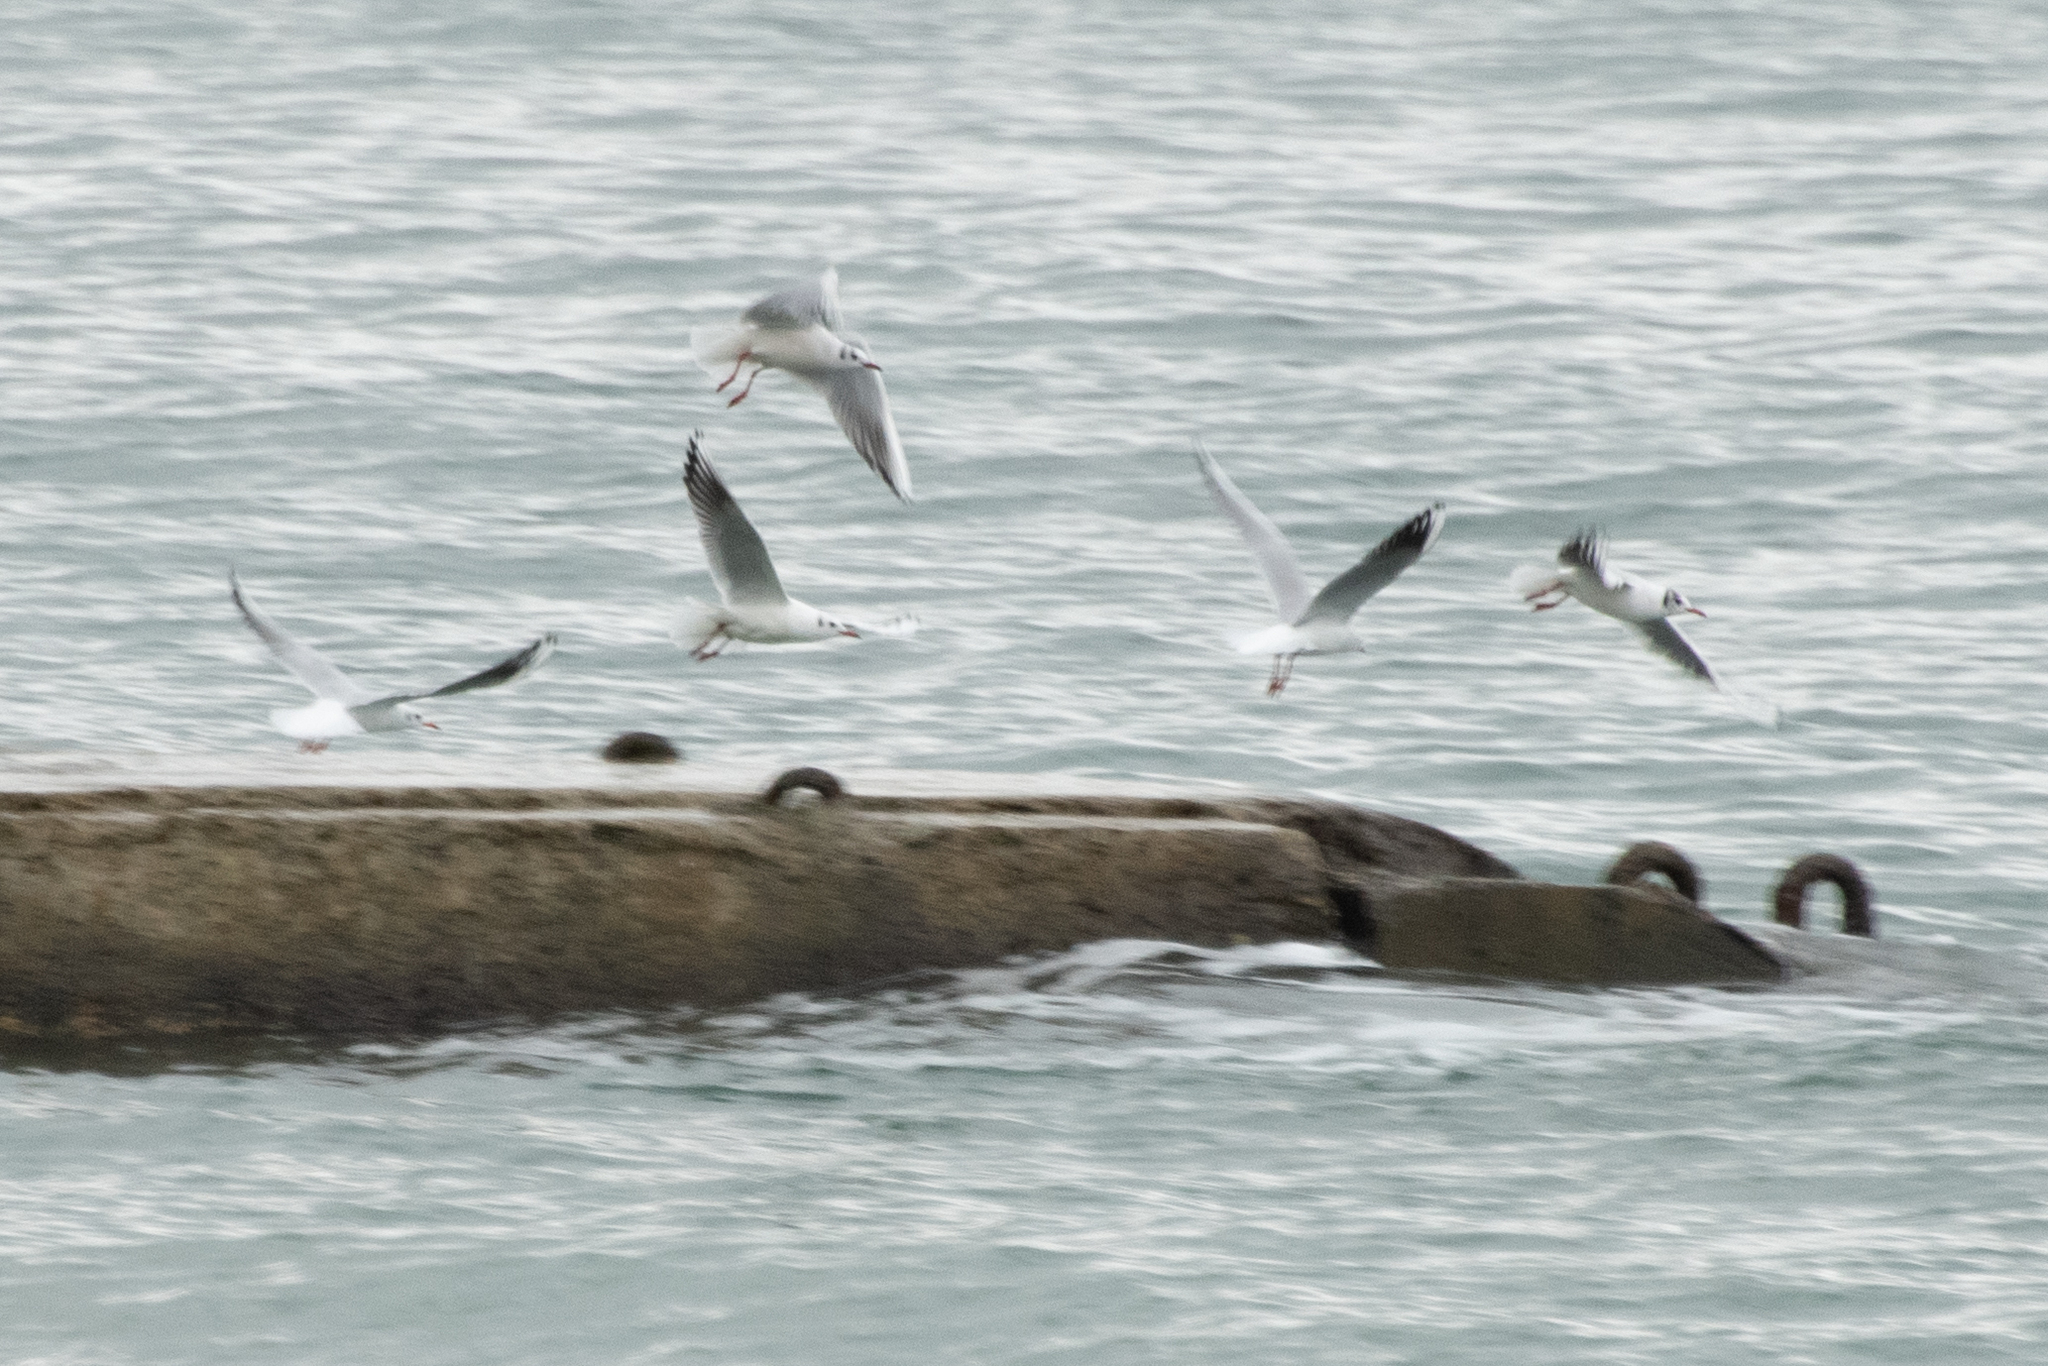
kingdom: Animalia
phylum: Chordata
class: Aves
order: Charadriiformes
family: Laridae
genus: Chroicocephalus
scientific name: Chroicocephalus ridibundus
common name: Black-headed gull
